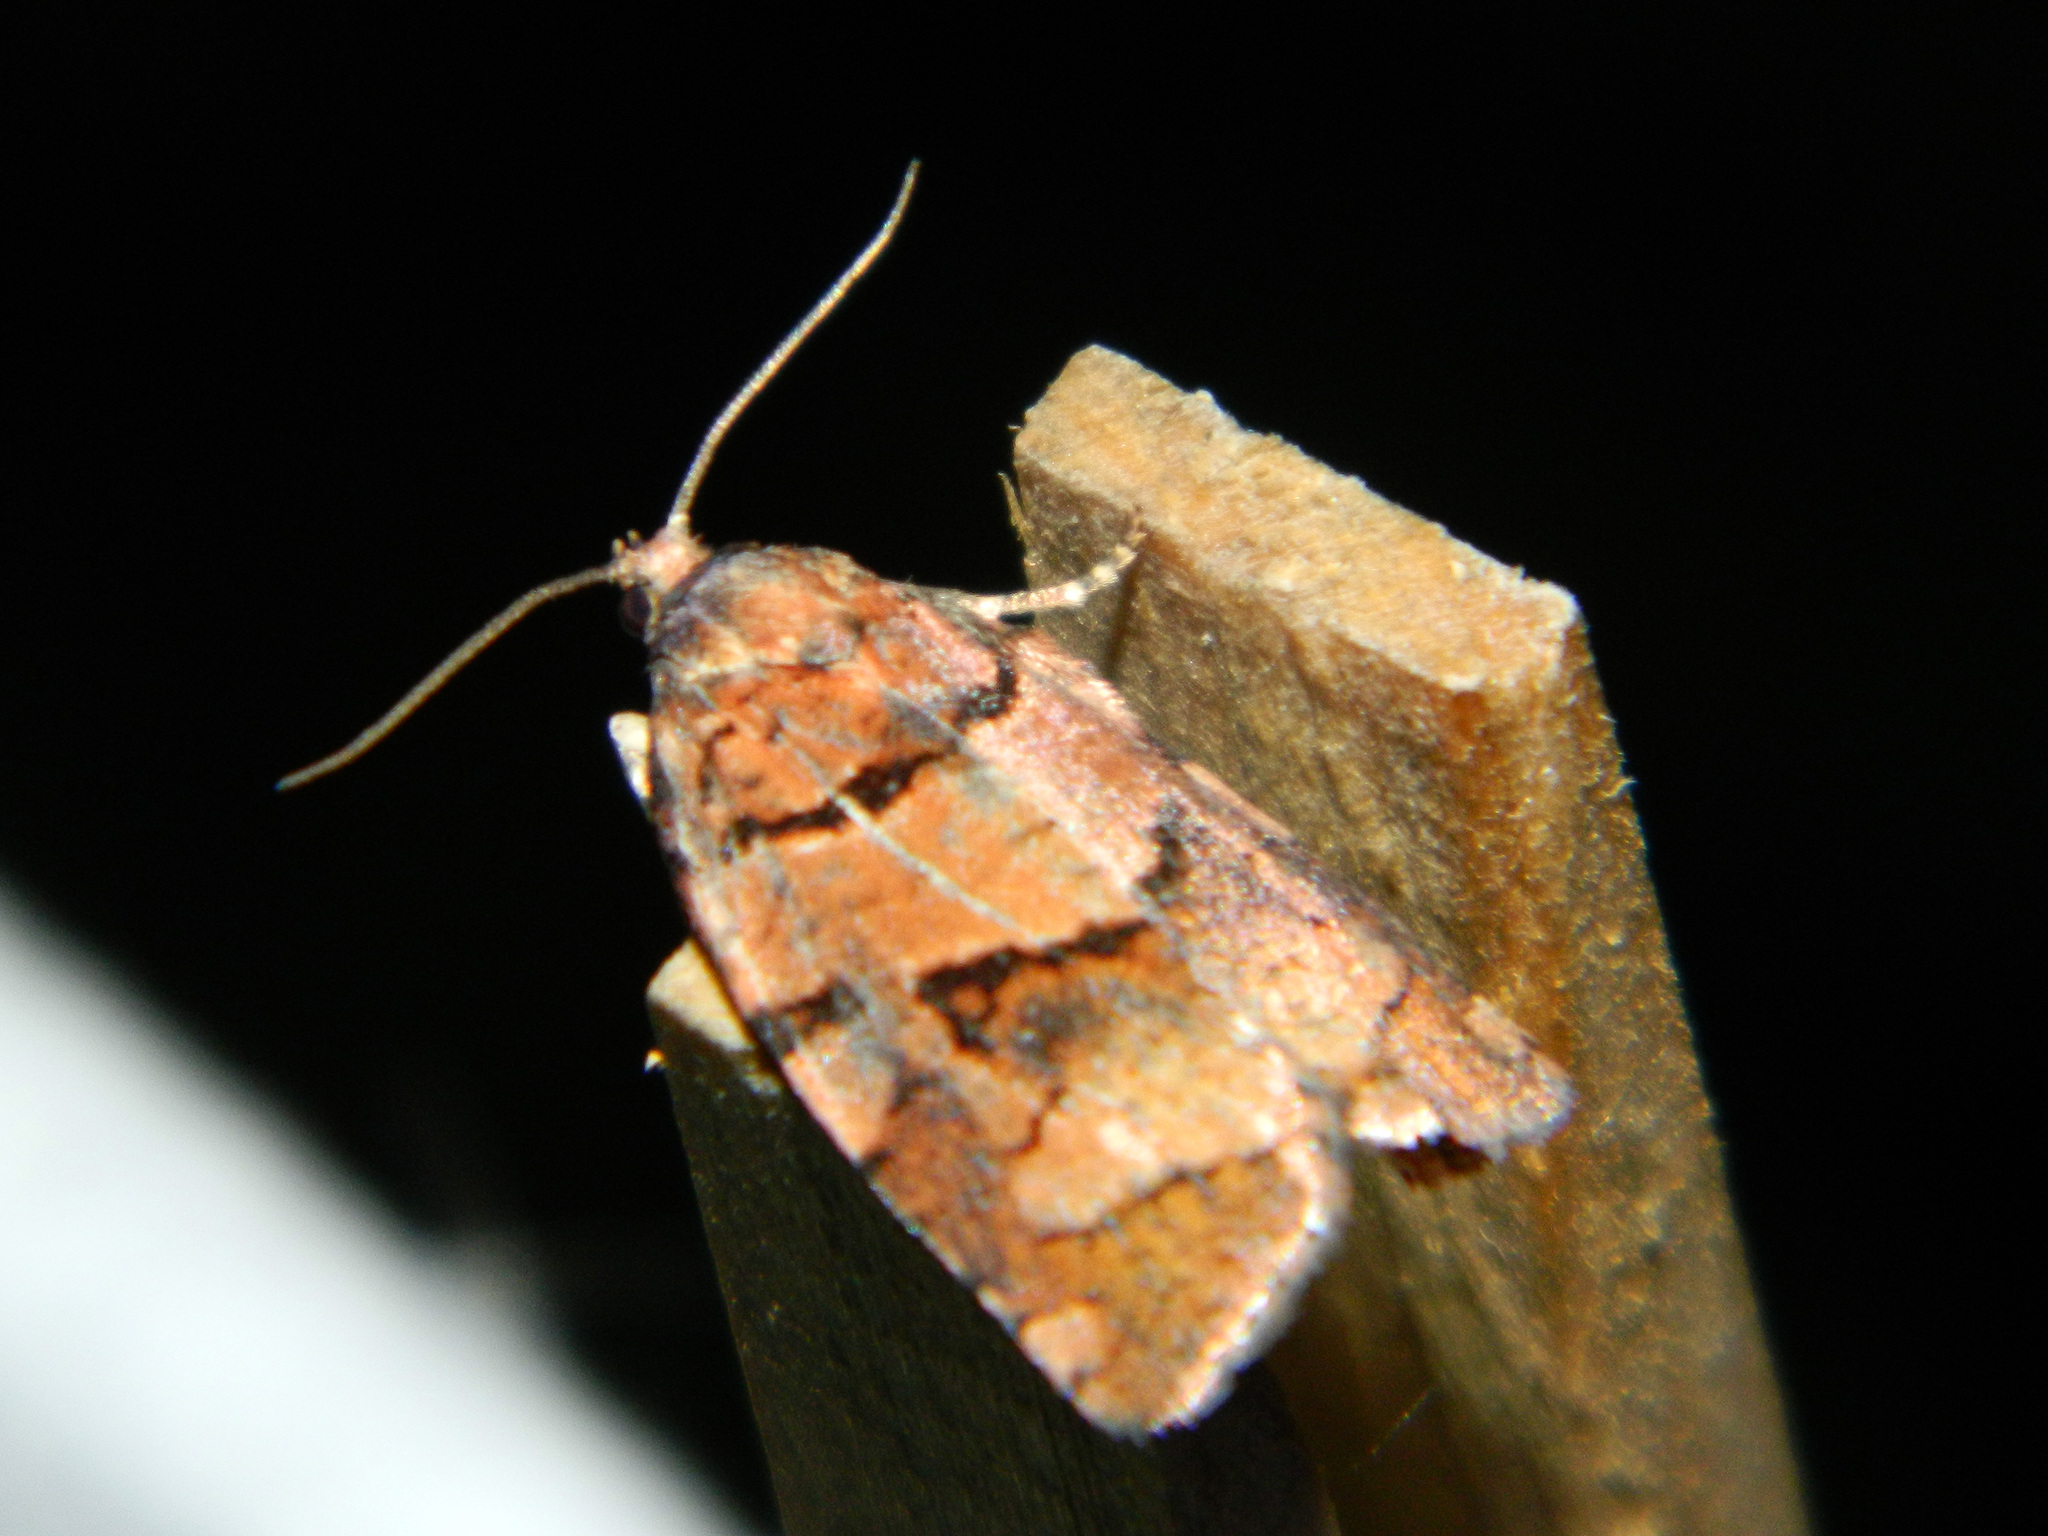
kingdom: Animalia
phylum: Arthropoda
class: Insecta
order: Lepidoptera
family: Tortricidae
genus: Archips
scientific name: Archips alberta
